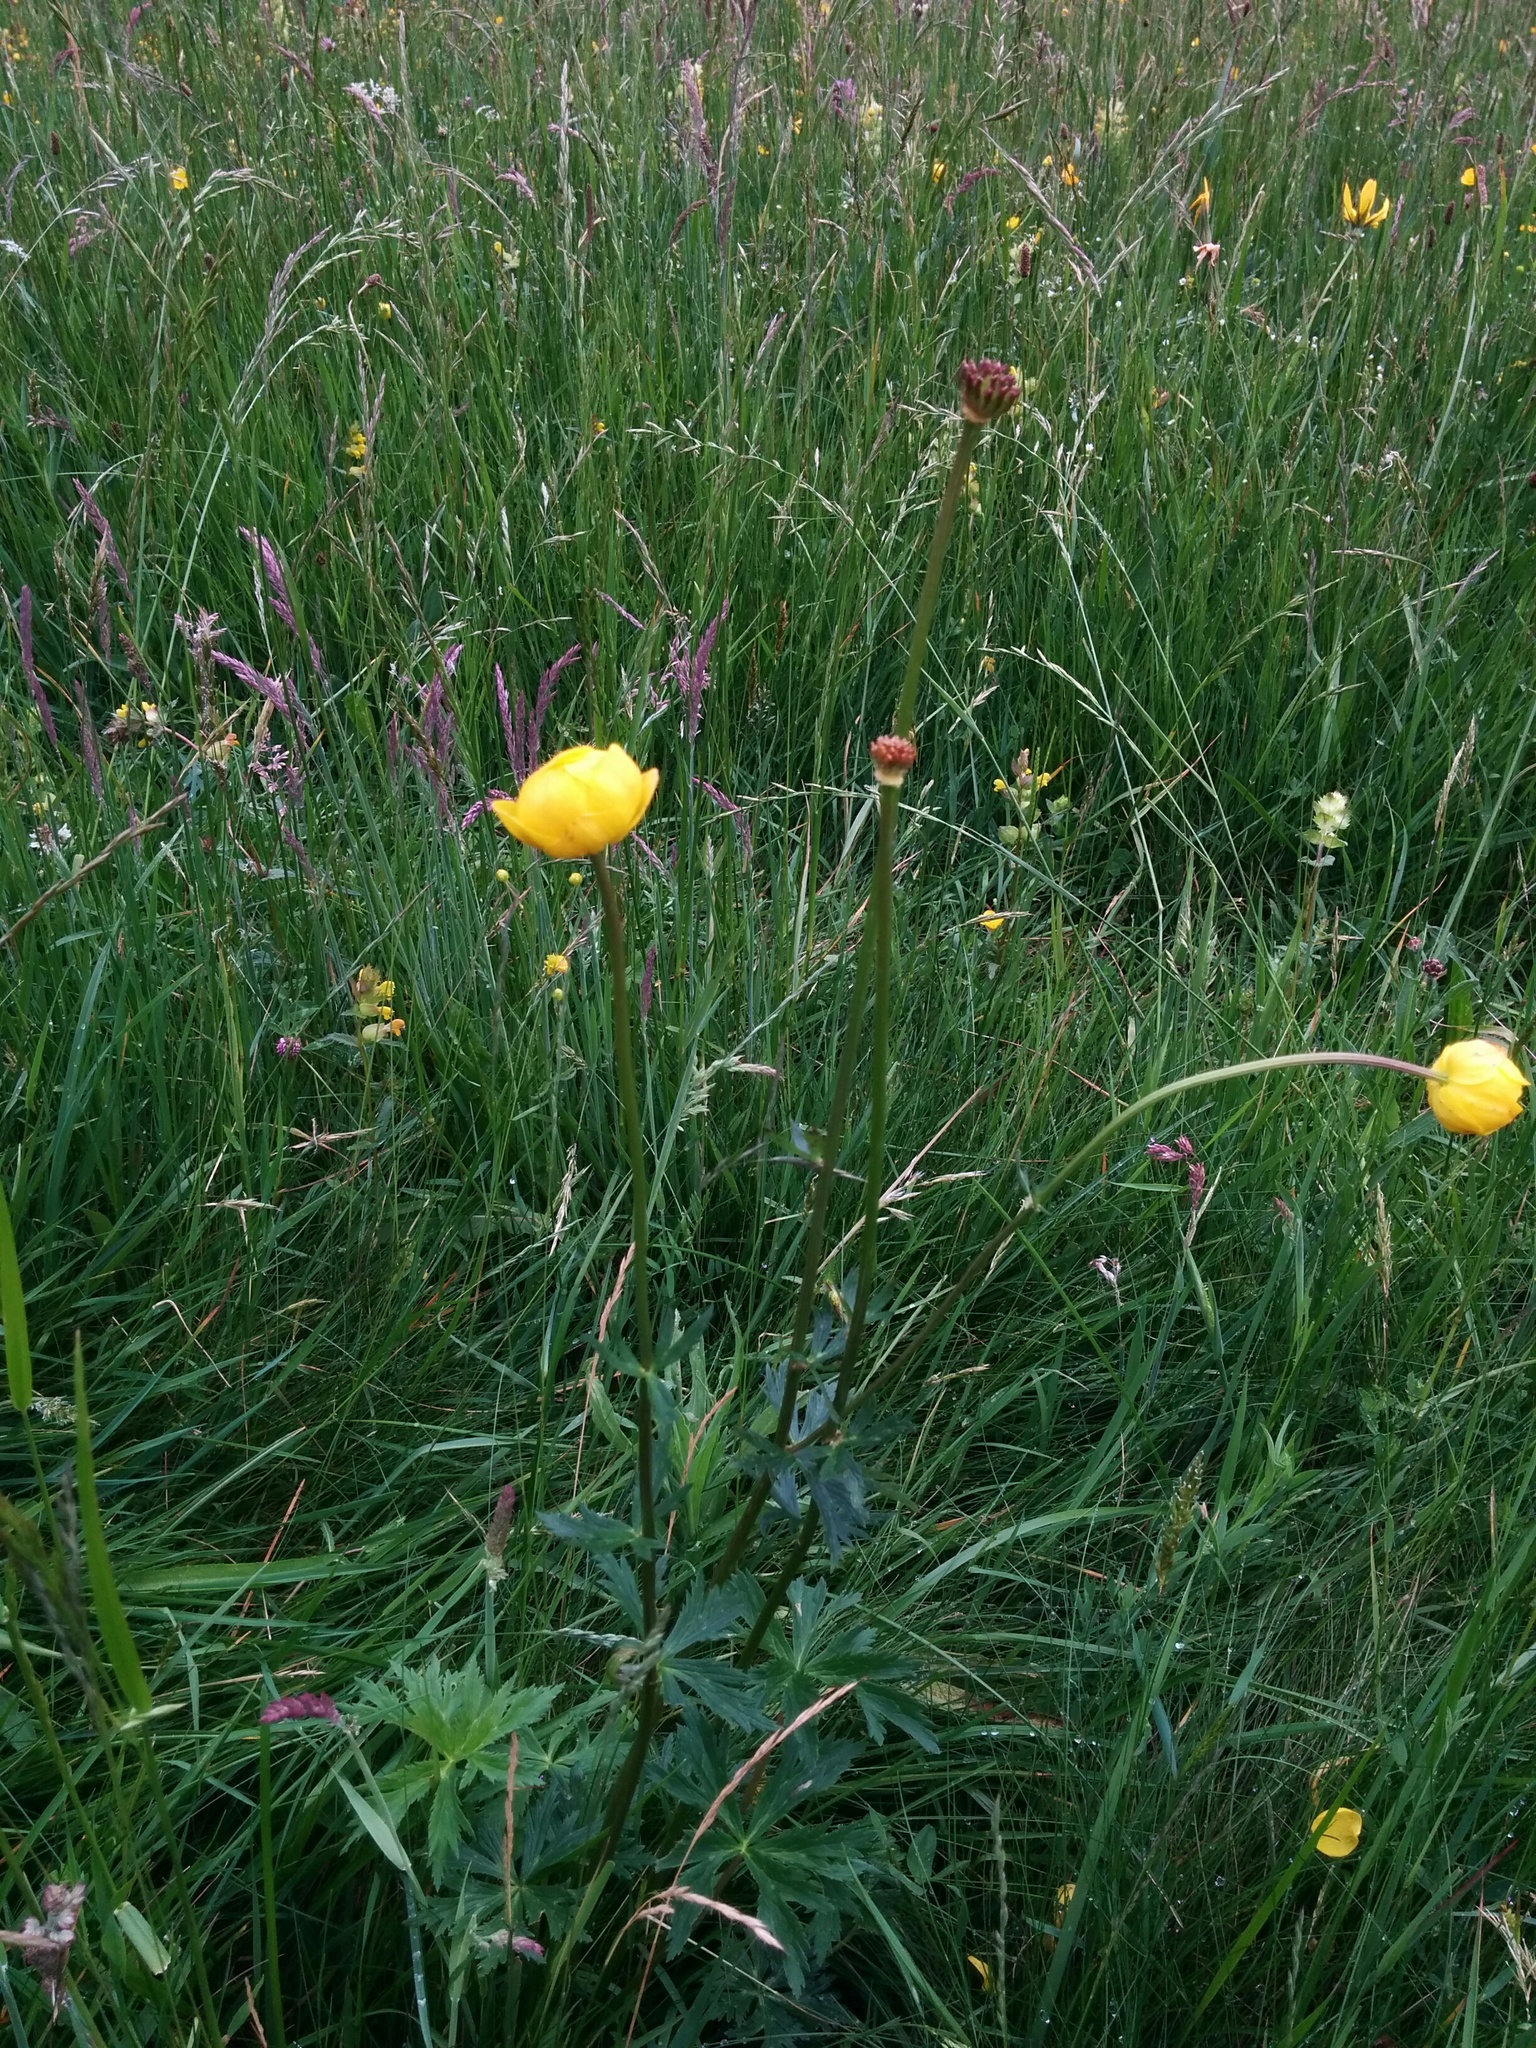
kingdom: Plantae
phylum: Tracheophyta
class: Magnoliopsida
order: Ranunculales
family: Ranunculaceae
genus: Trollius
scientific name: Trollius europaeus
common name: European globeflower
